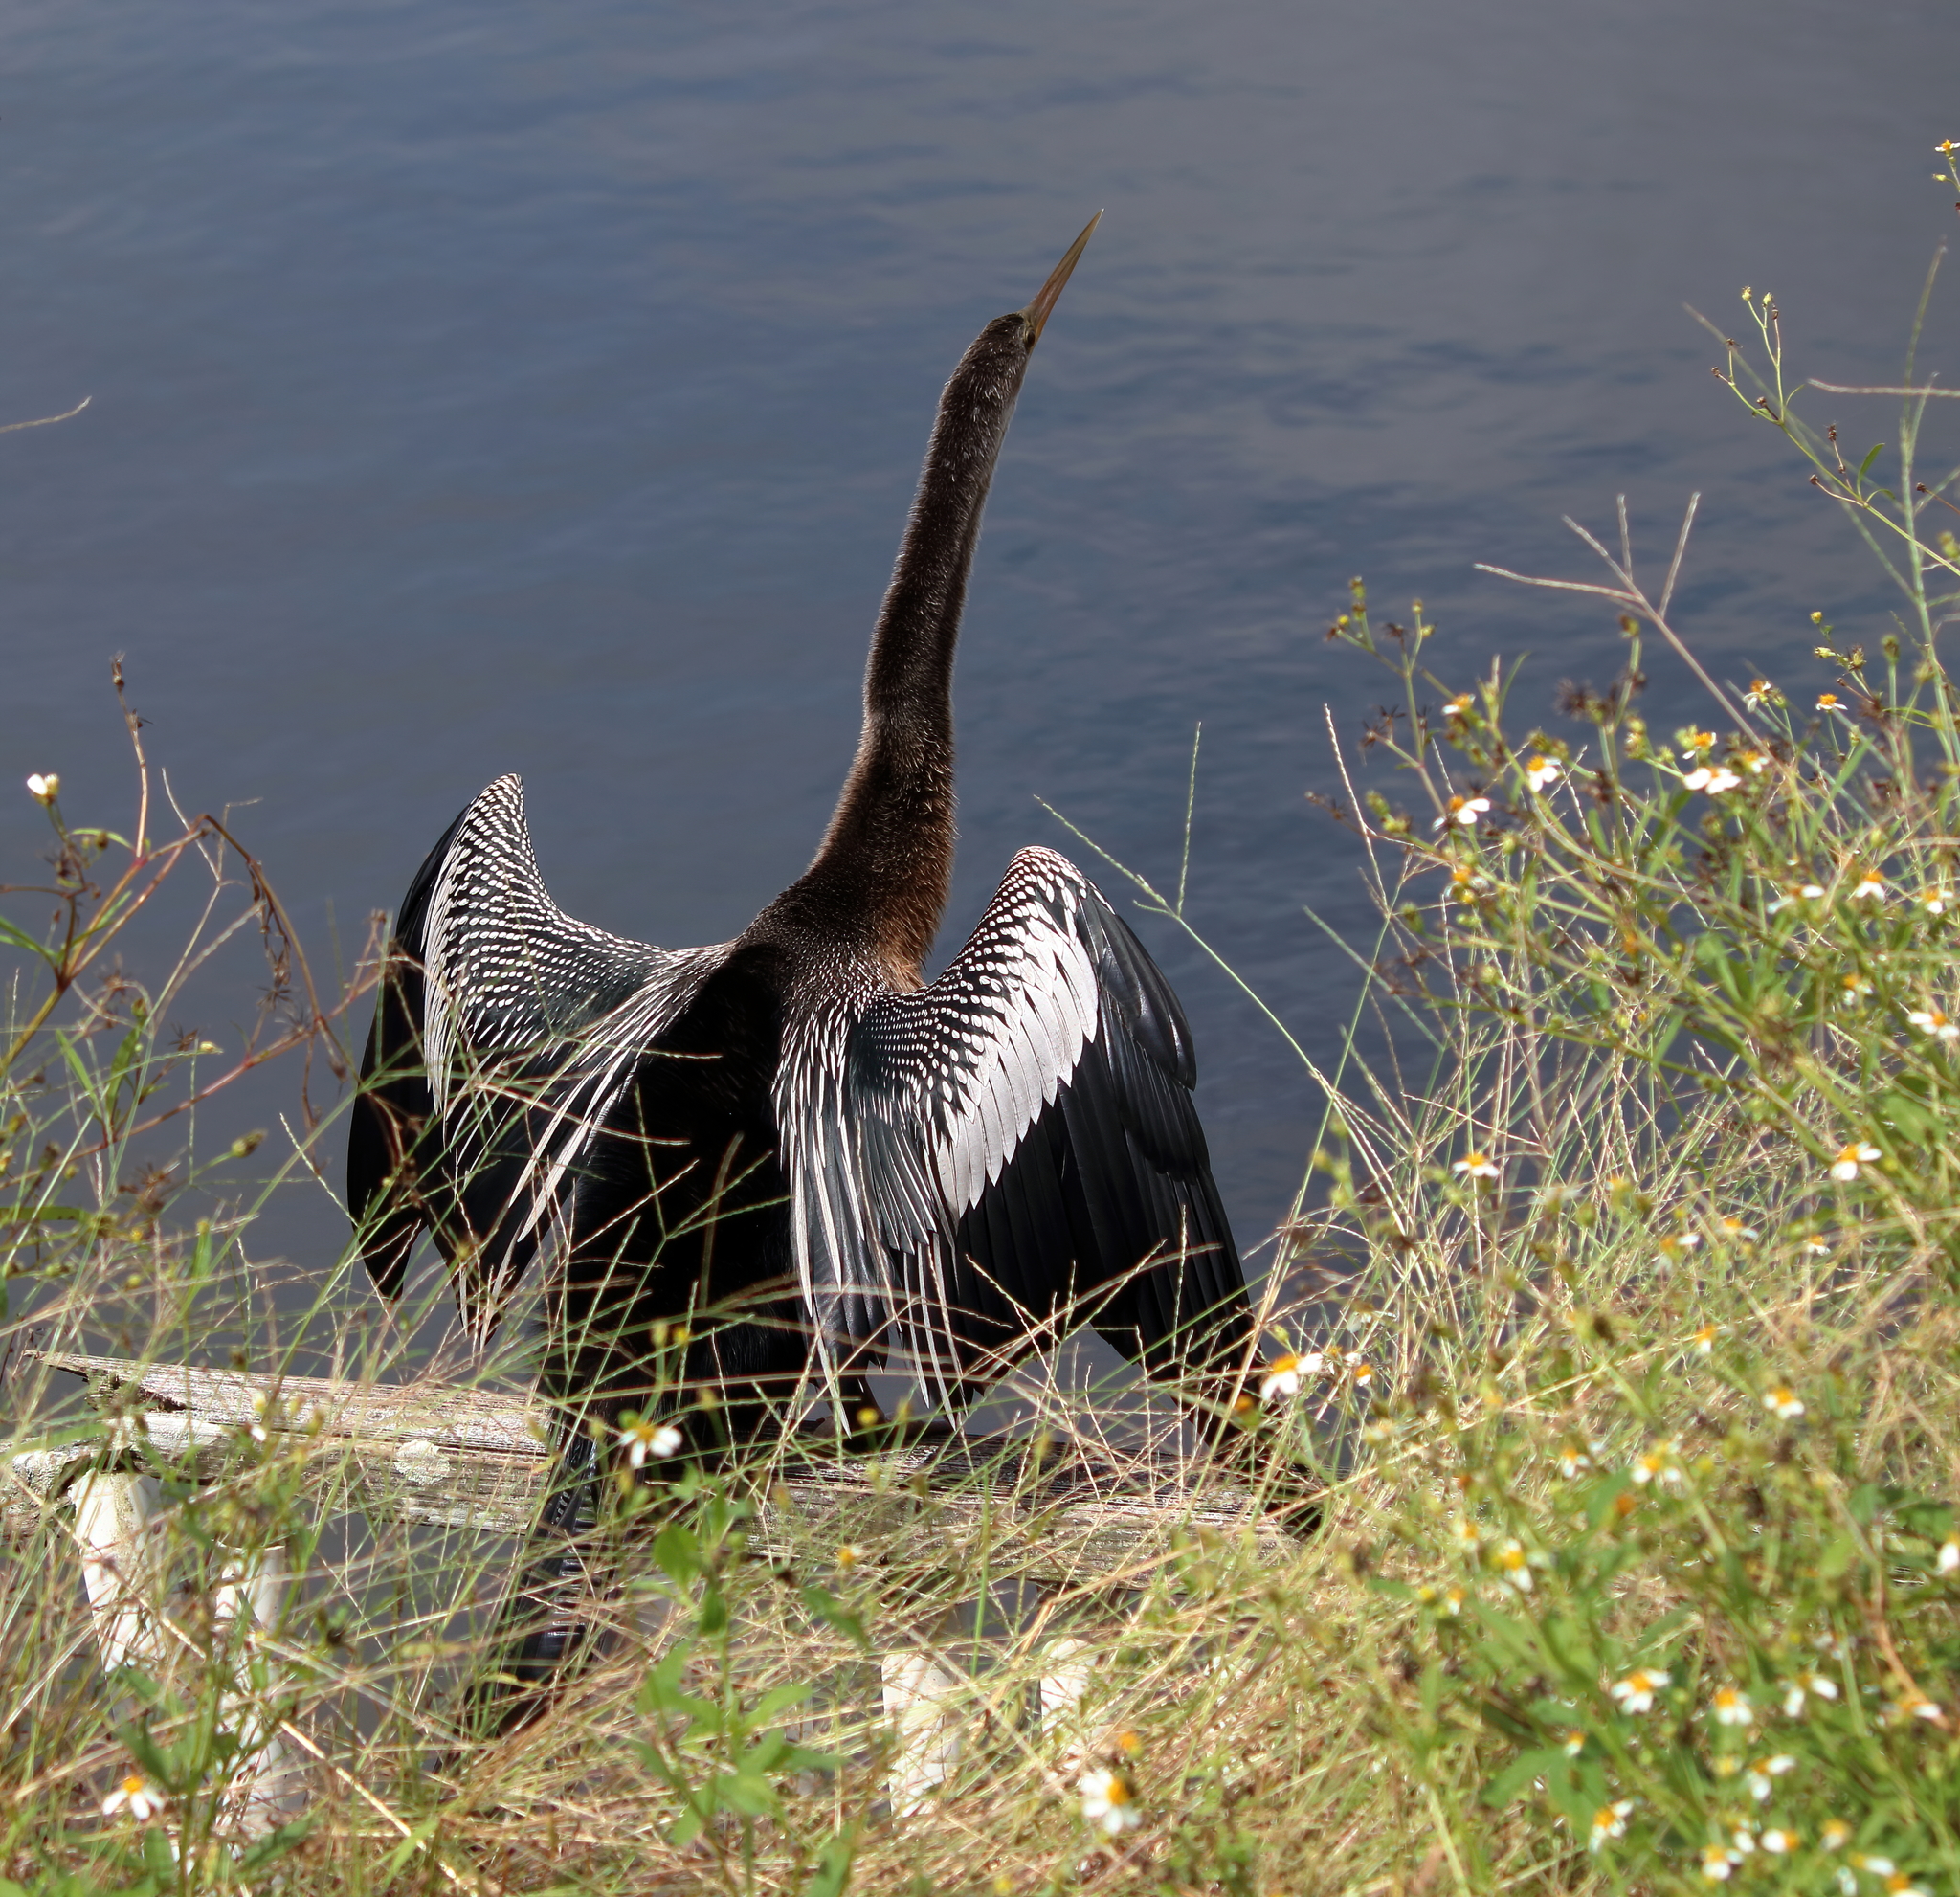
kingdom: Animalia
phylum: Chordata
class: Aves
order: Suliformes
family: Anhingidae
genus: Anhinga
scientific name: Anhinga anhinga
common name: Anhinga
